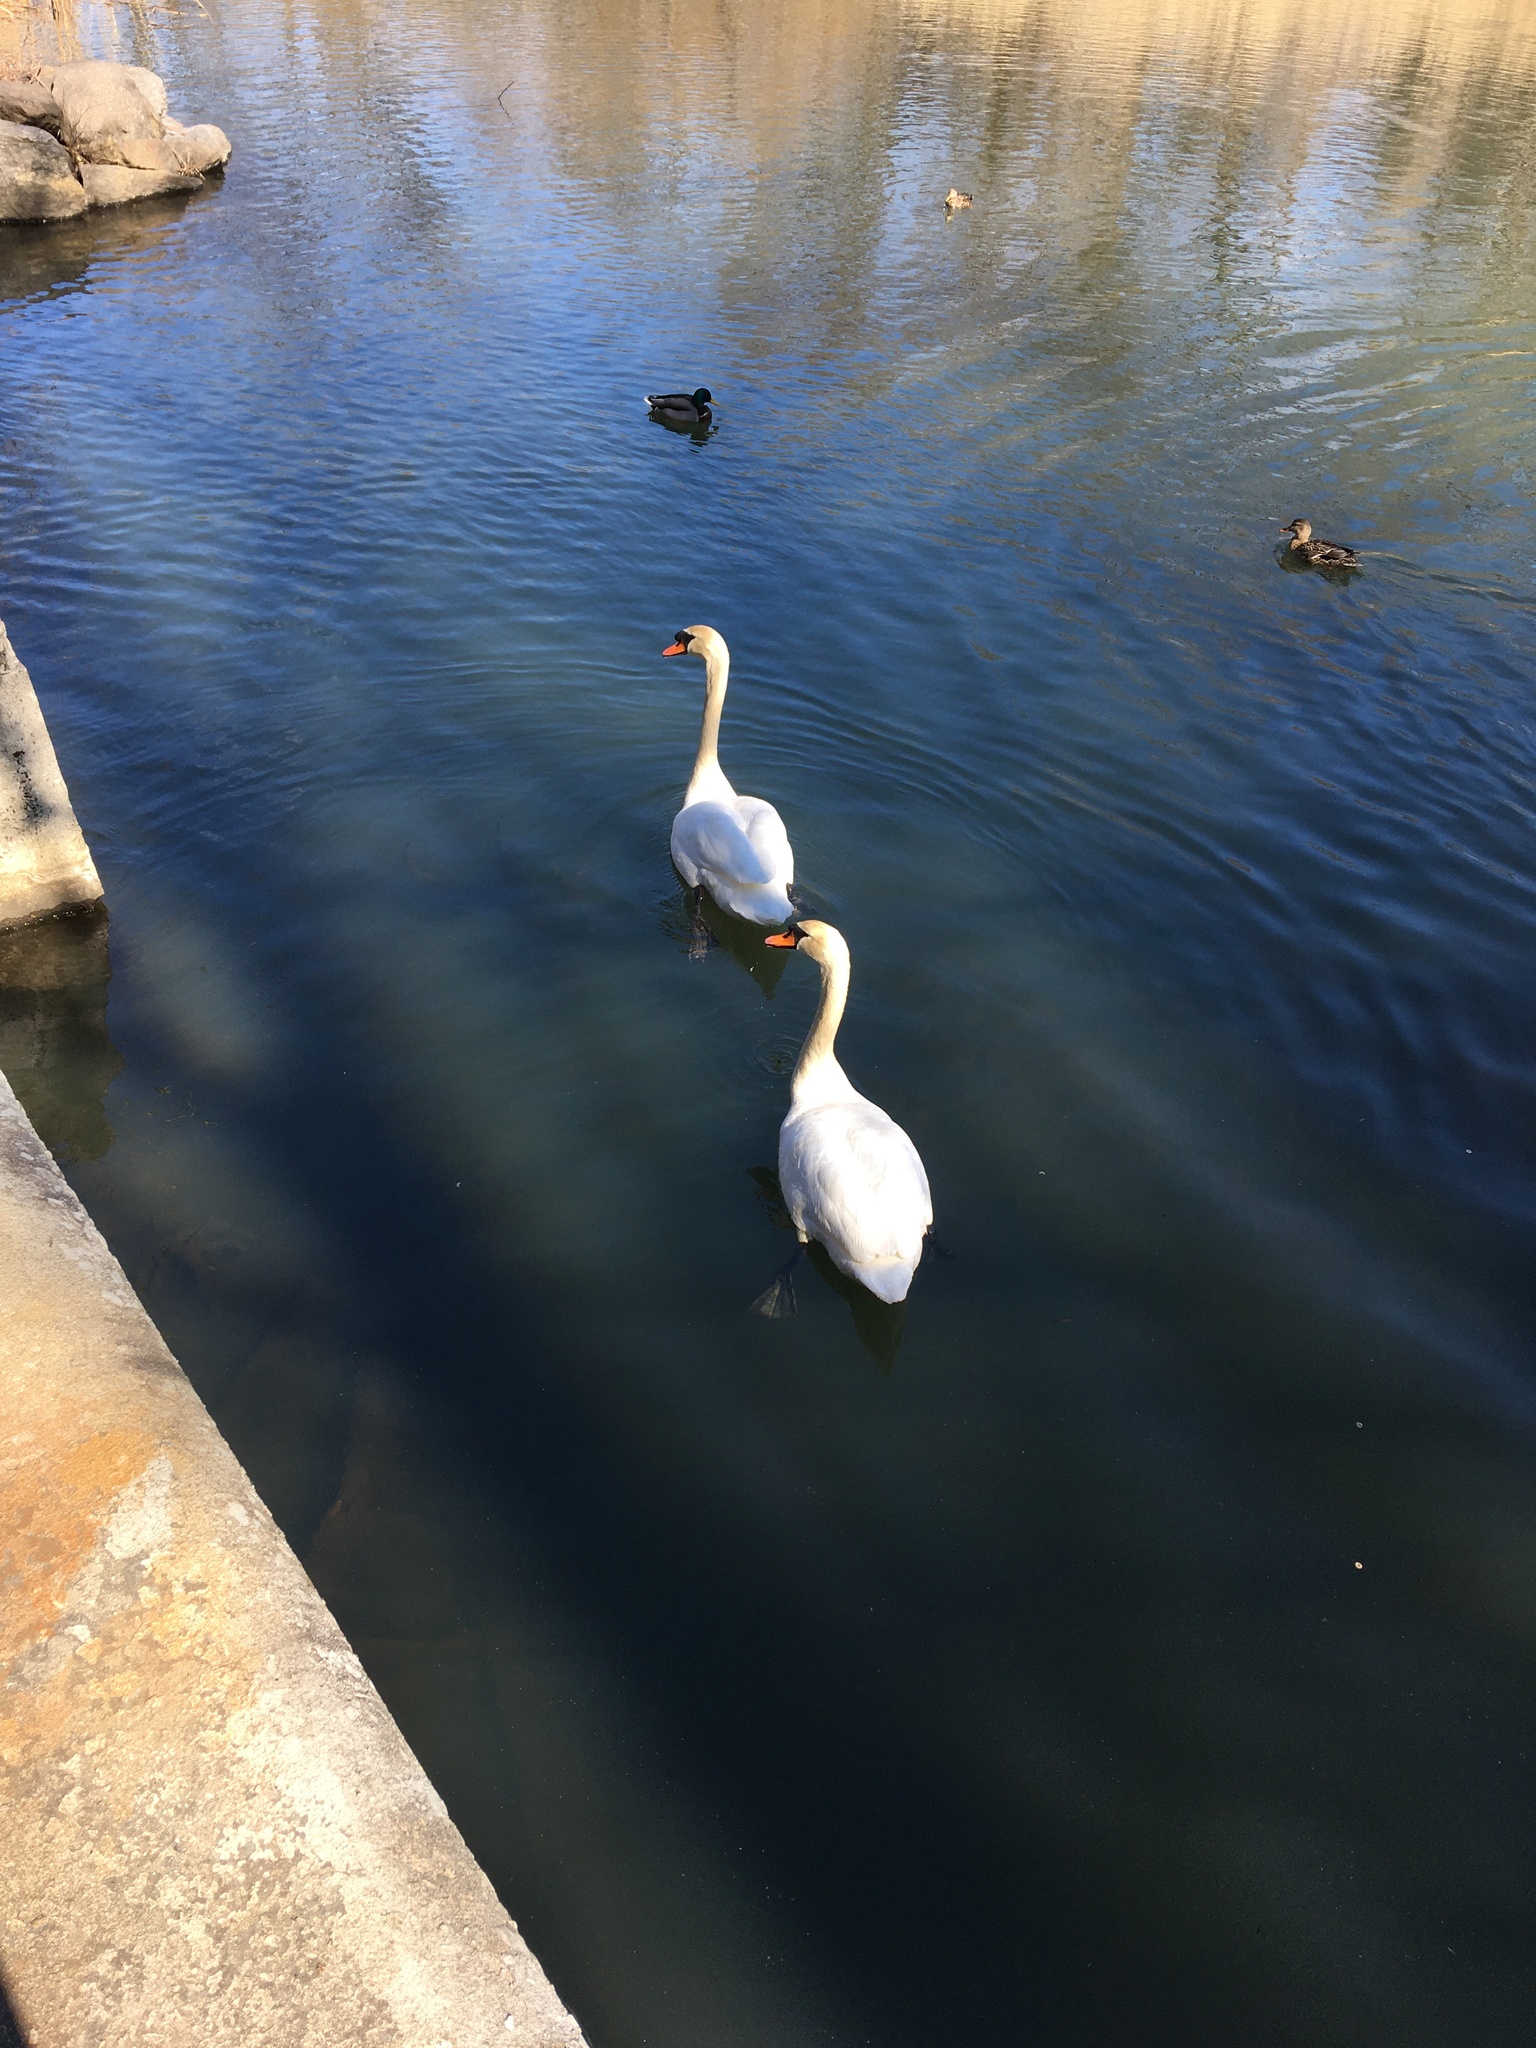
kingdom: Animalia
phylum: Chordata
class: Aves
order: Anseriformes
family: Anatidae
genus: Cygnus
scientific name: Cygnus olor
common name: Mute swan
